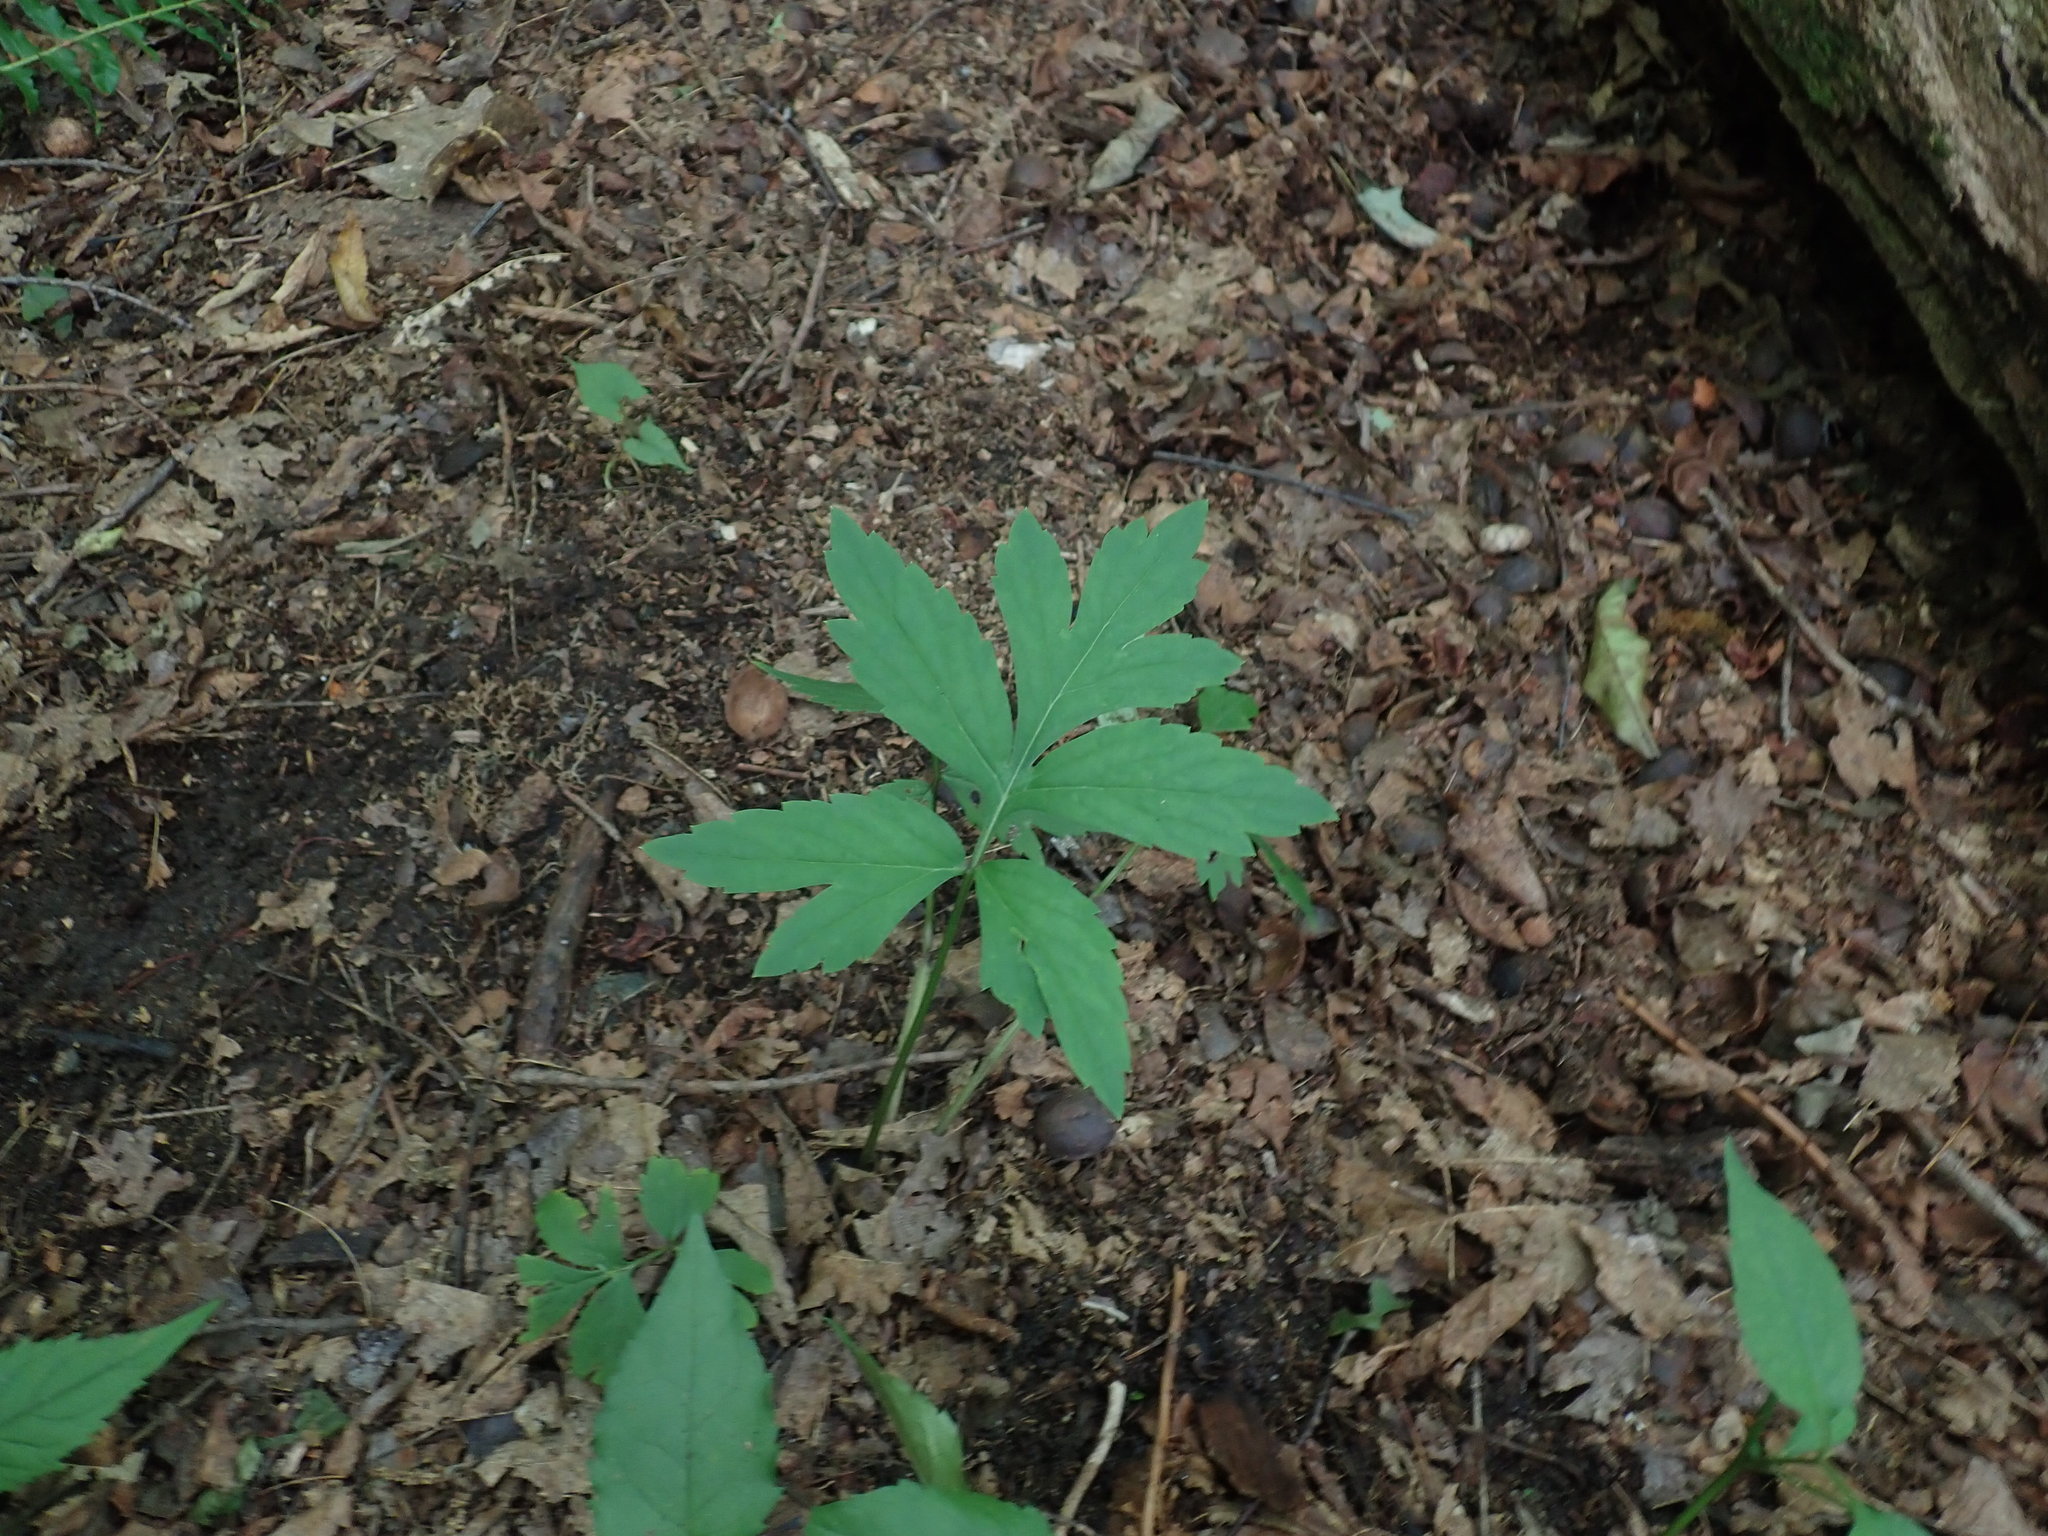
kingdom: Plantae
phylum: Tracheophyta
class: Magnoliopsida
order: Boraginales
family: Hydrophyllaceae
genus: Hydrophyllum
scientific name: Hydrophyllum virginianum
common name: Virginia waterleaf
